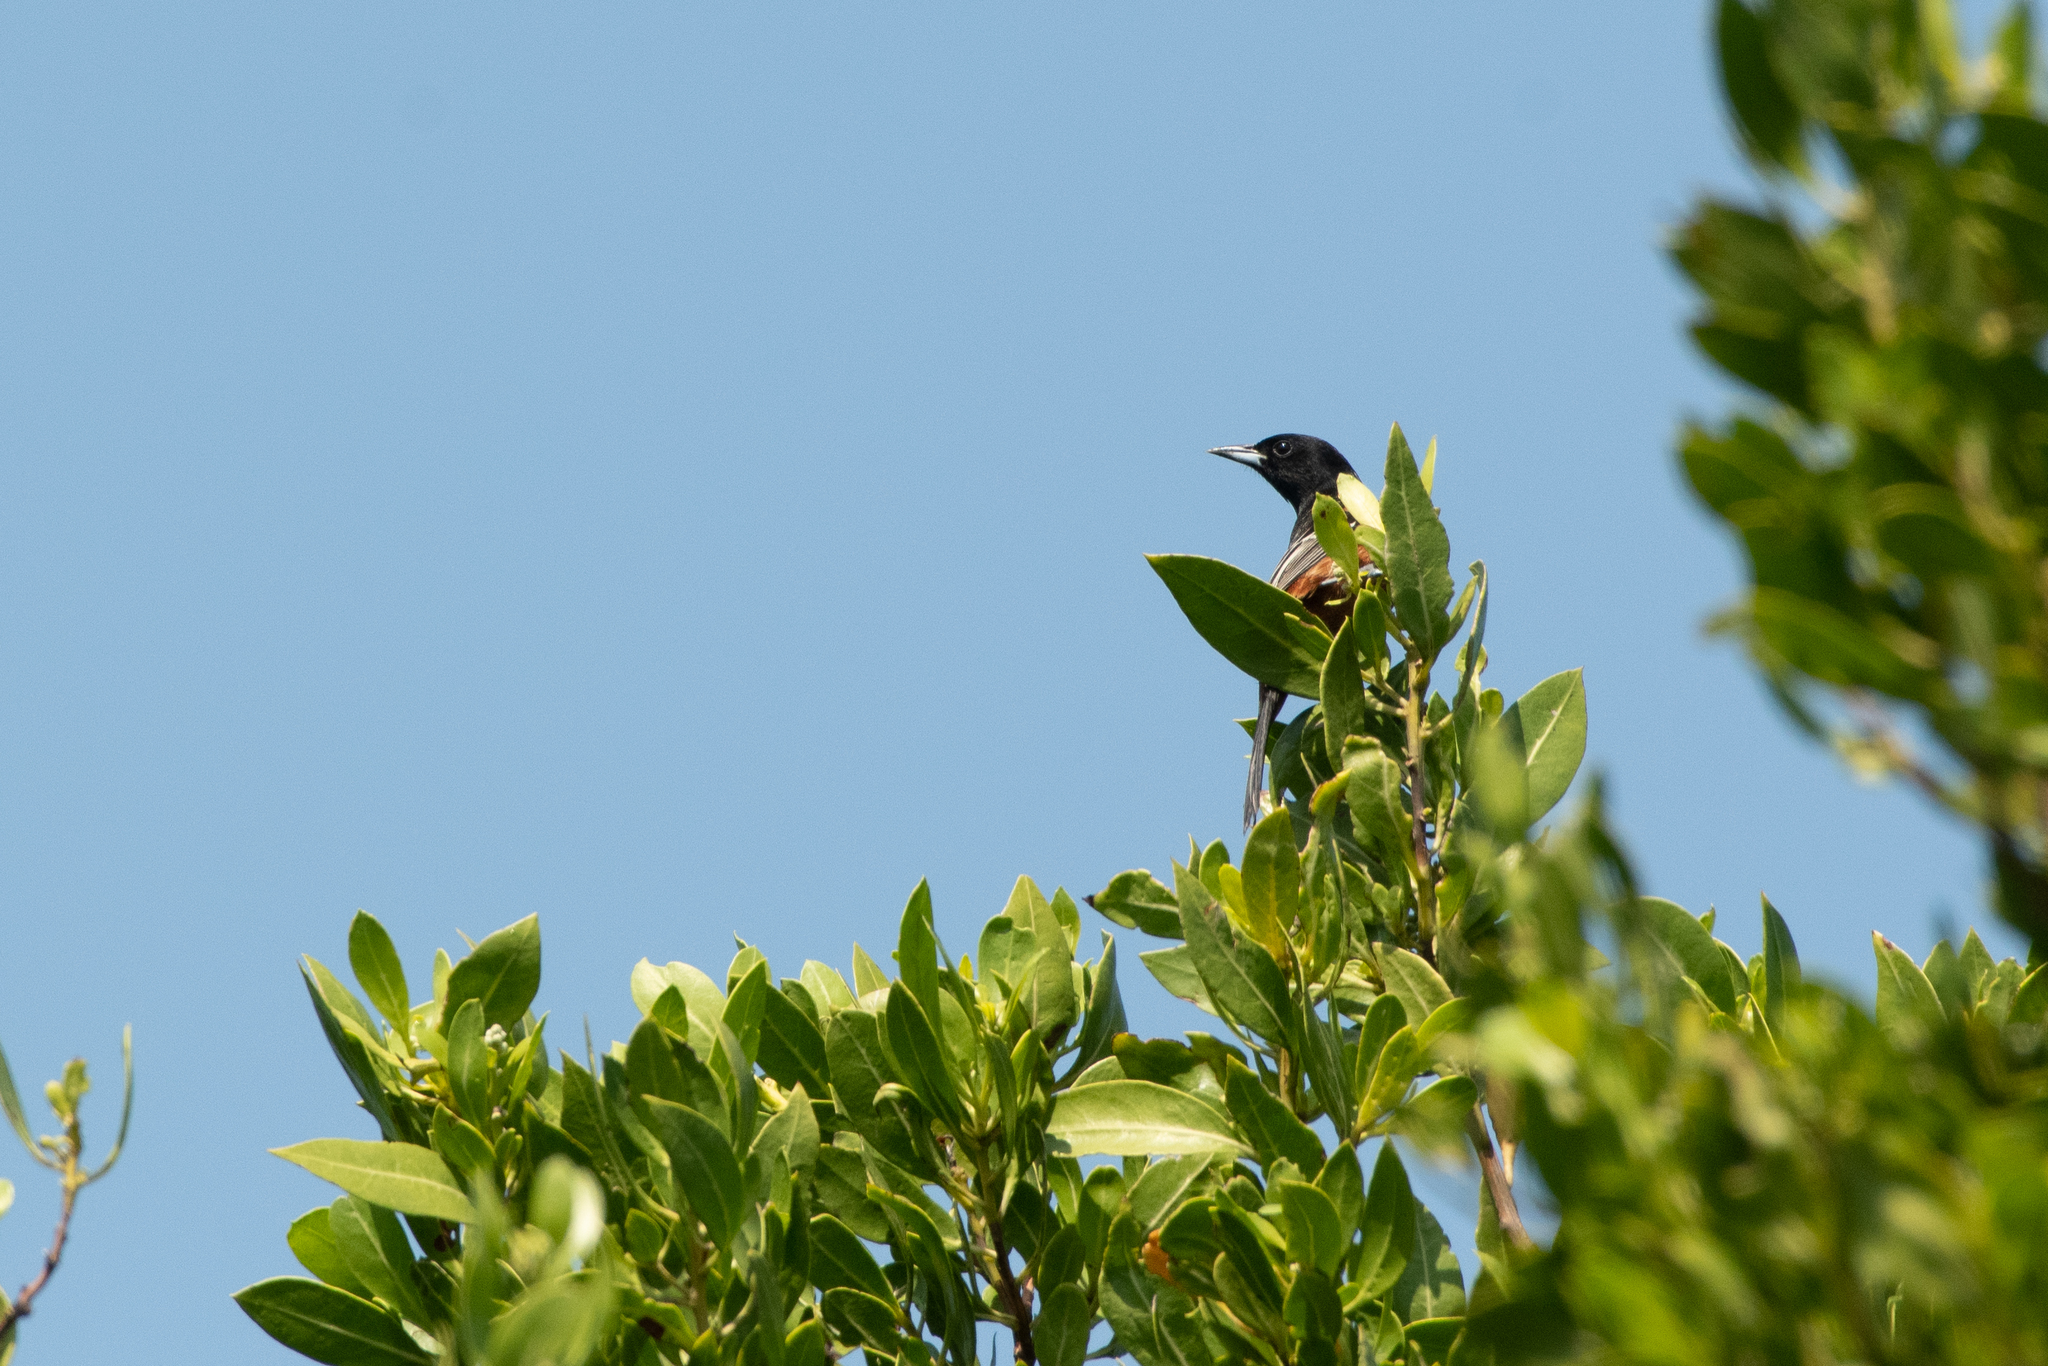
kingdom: Animalia
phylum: Chordata
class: Aves
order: Passeriformes
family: Icteridae
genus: Icterus
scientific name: Icterus spurius
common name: Orchard oriole
